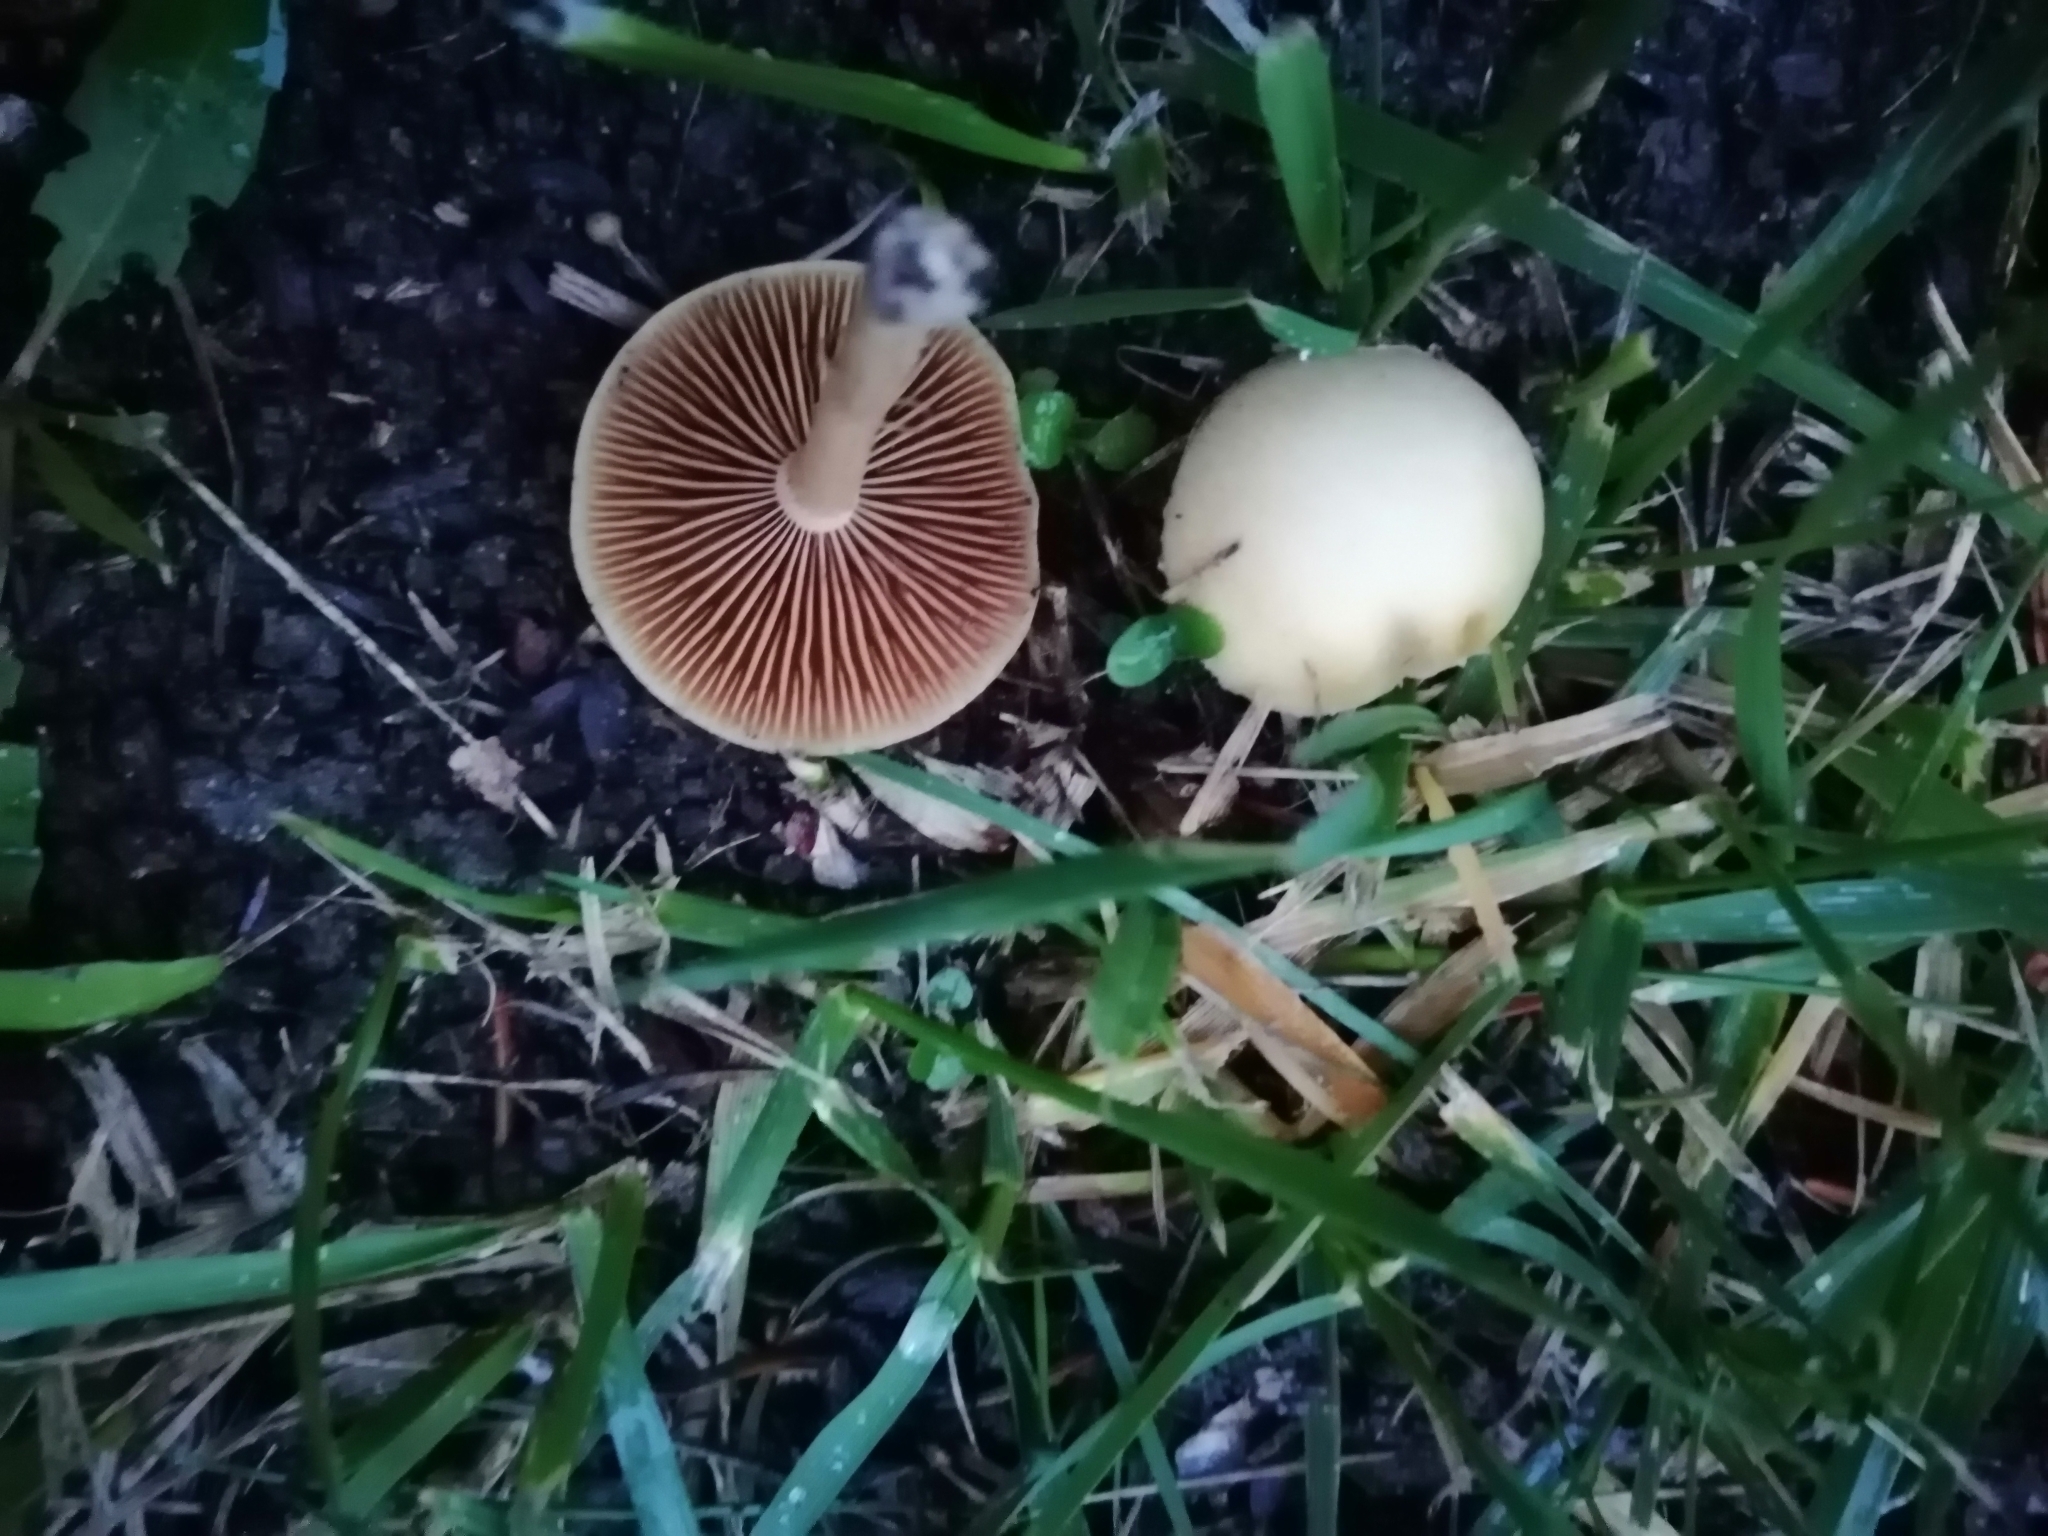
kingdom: Fungi
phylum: Basidiomycota
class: Agaricomycetes
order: Agaricales
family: Strophariaceae
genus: Agrocybe
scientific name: Agrocybe pediades
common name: Common fieldcap
